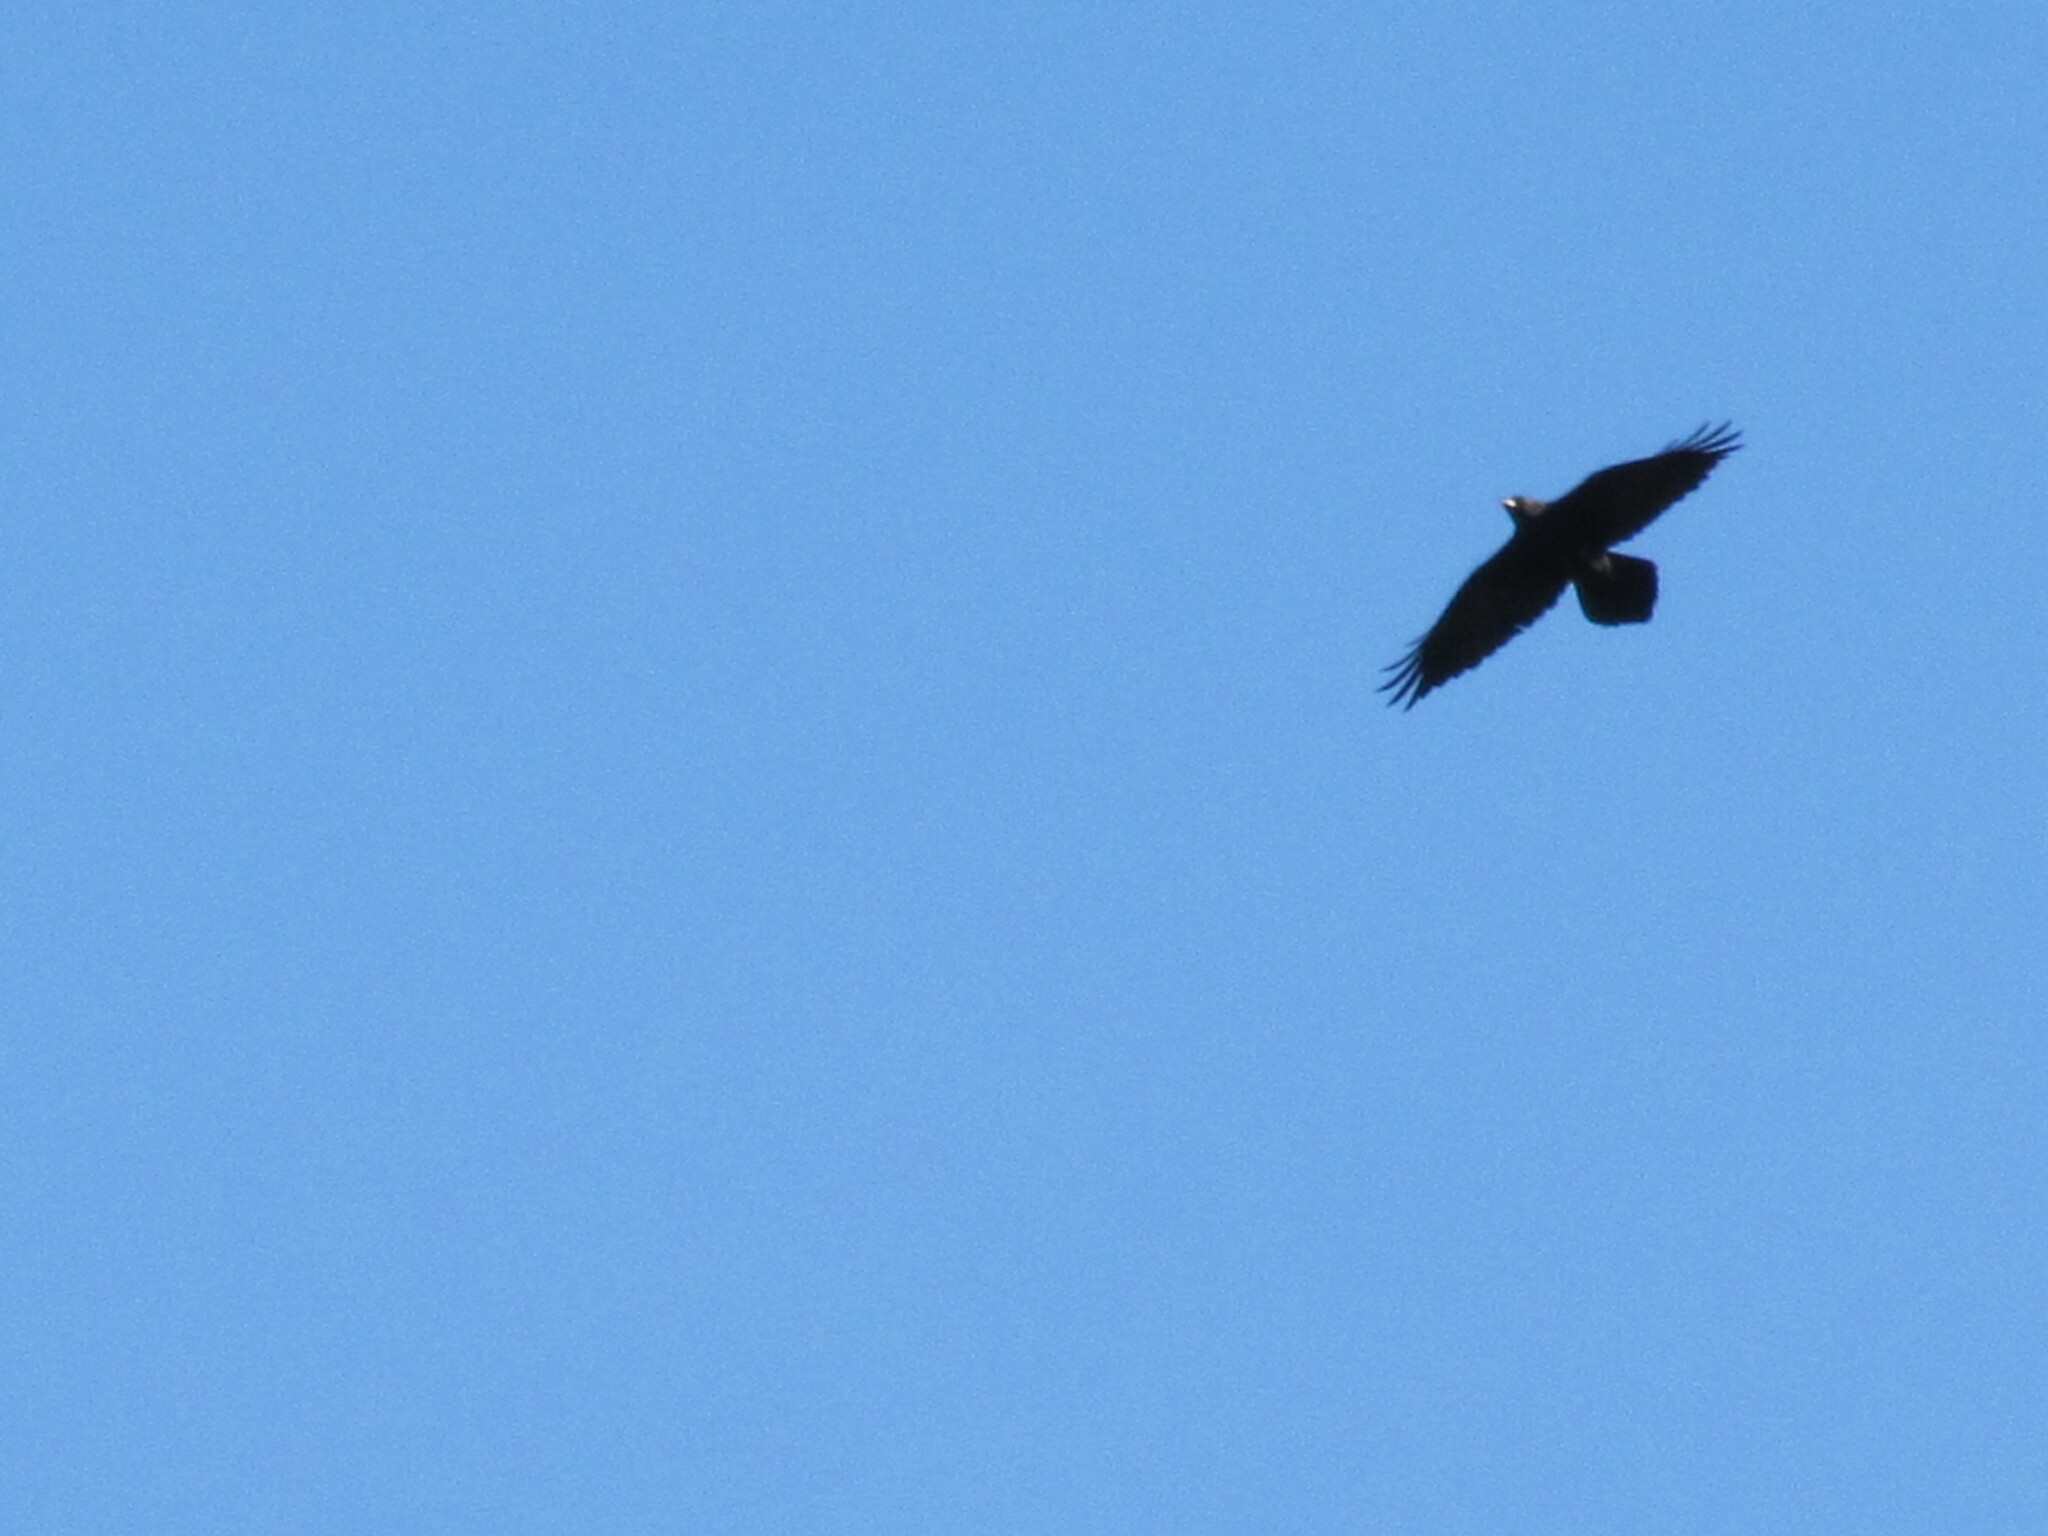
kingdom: Animalia
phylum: Chordata
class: Aves
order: Passeriformes
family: Corvidae
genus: Corvus
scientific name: Corvus corax
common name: Common raven
